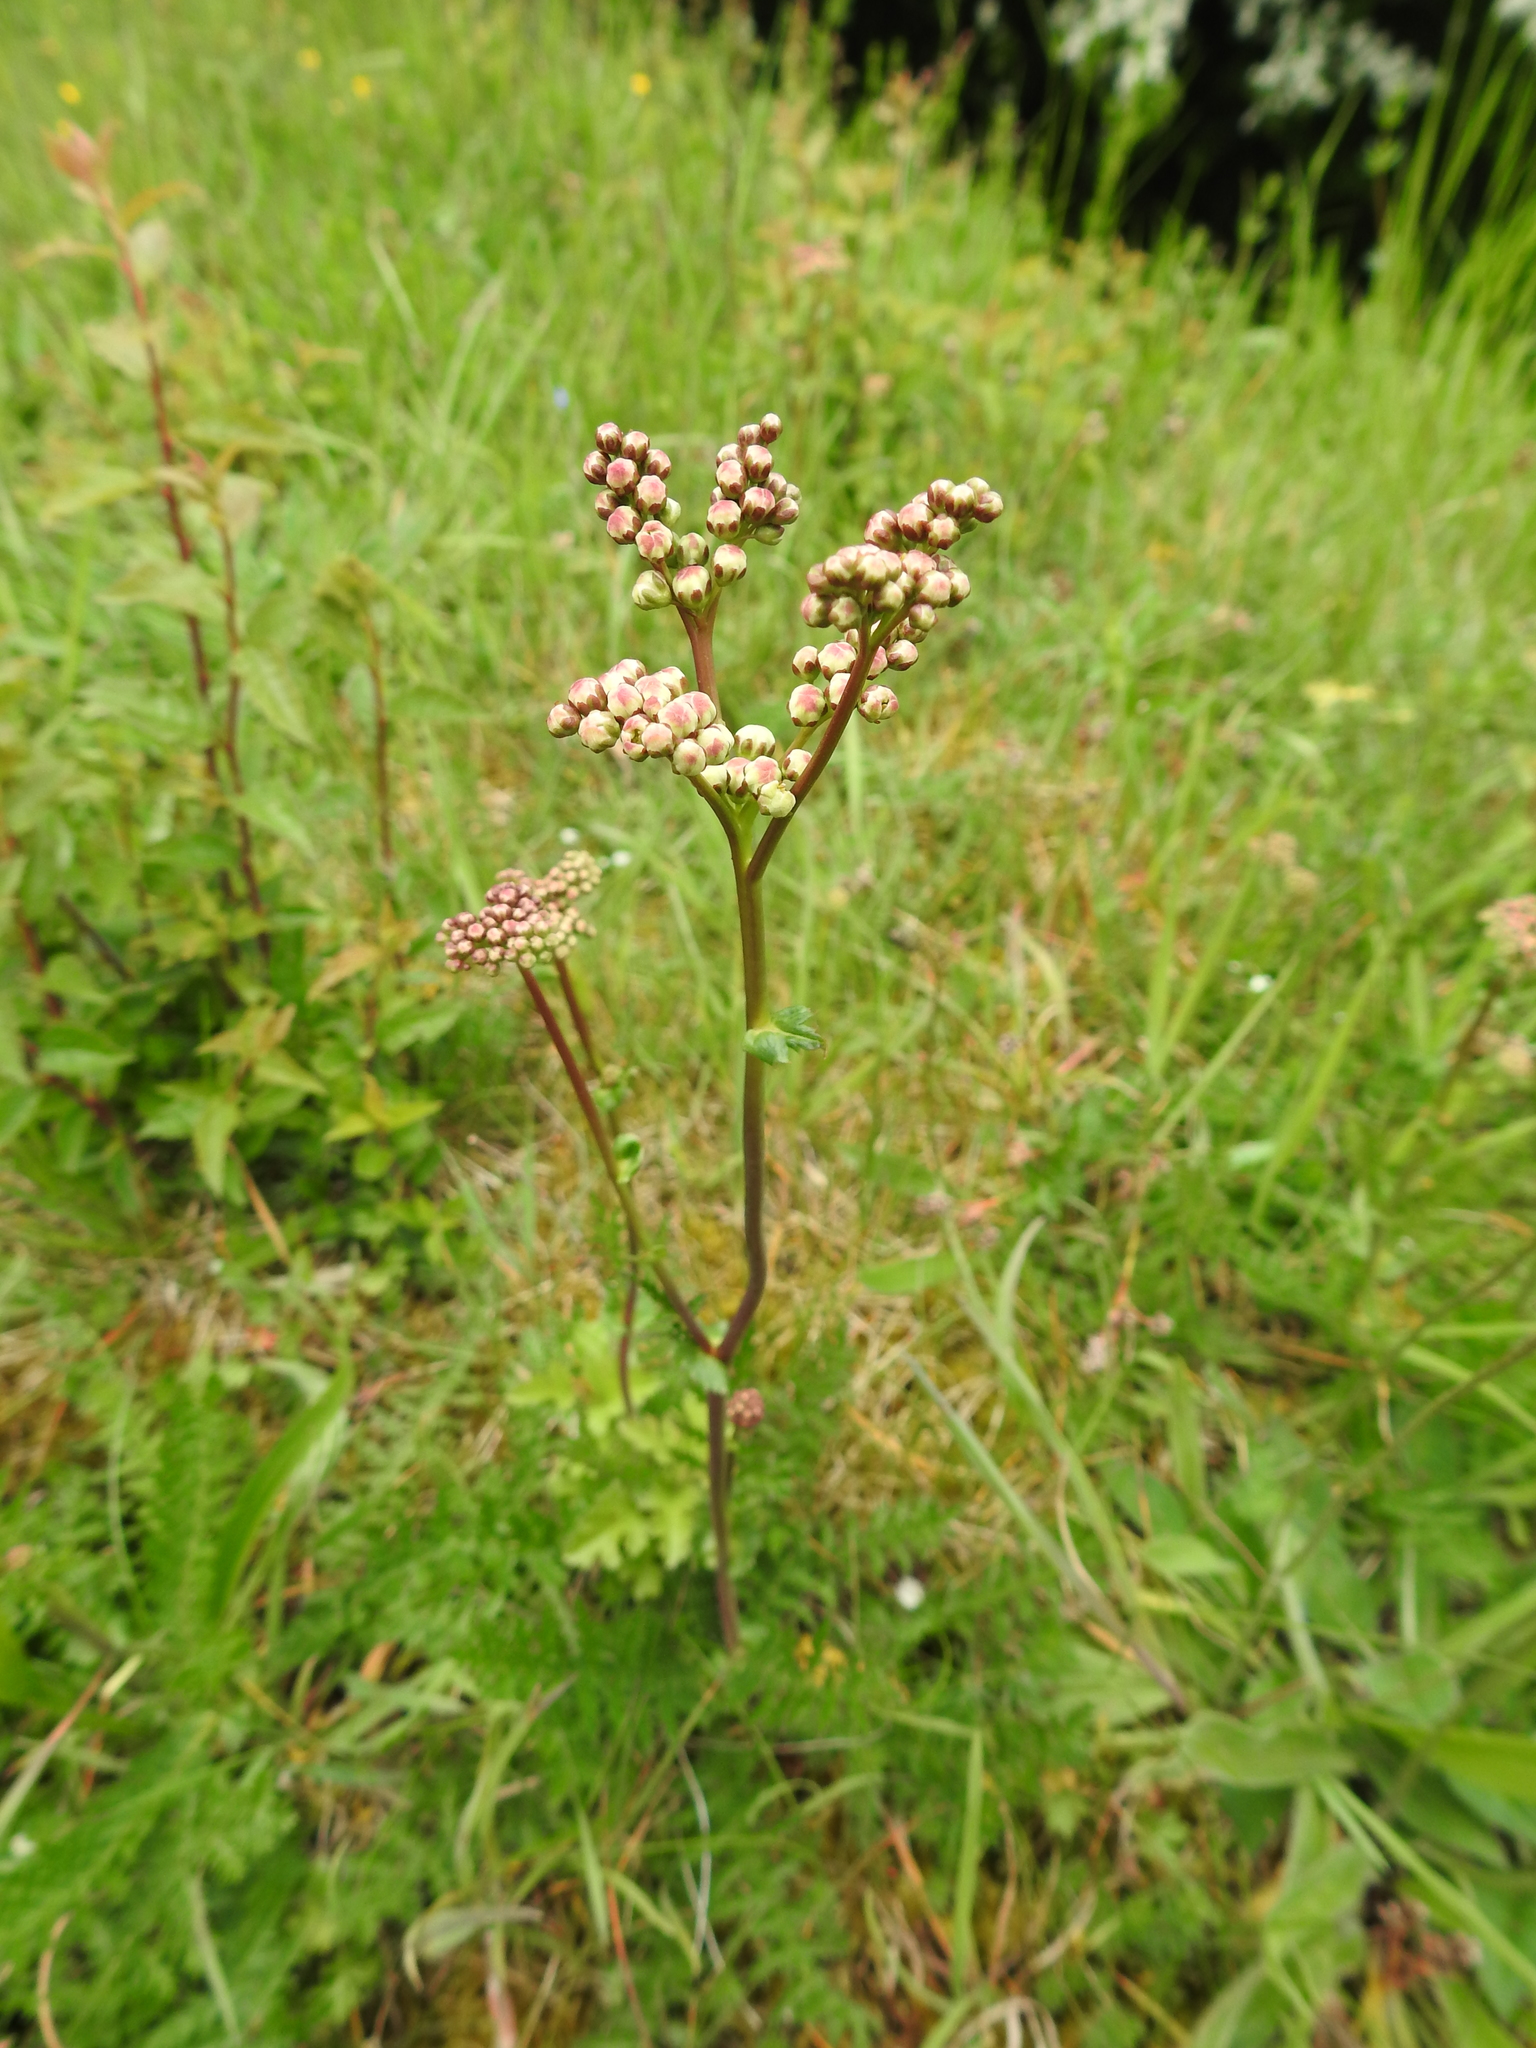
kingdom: Plantae
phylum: Tracheophyta
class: Magnoliopsida
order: Rosales
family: Rosaceae
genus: Filipendula
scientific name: Filipendula vulgaris
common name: Dropwort
